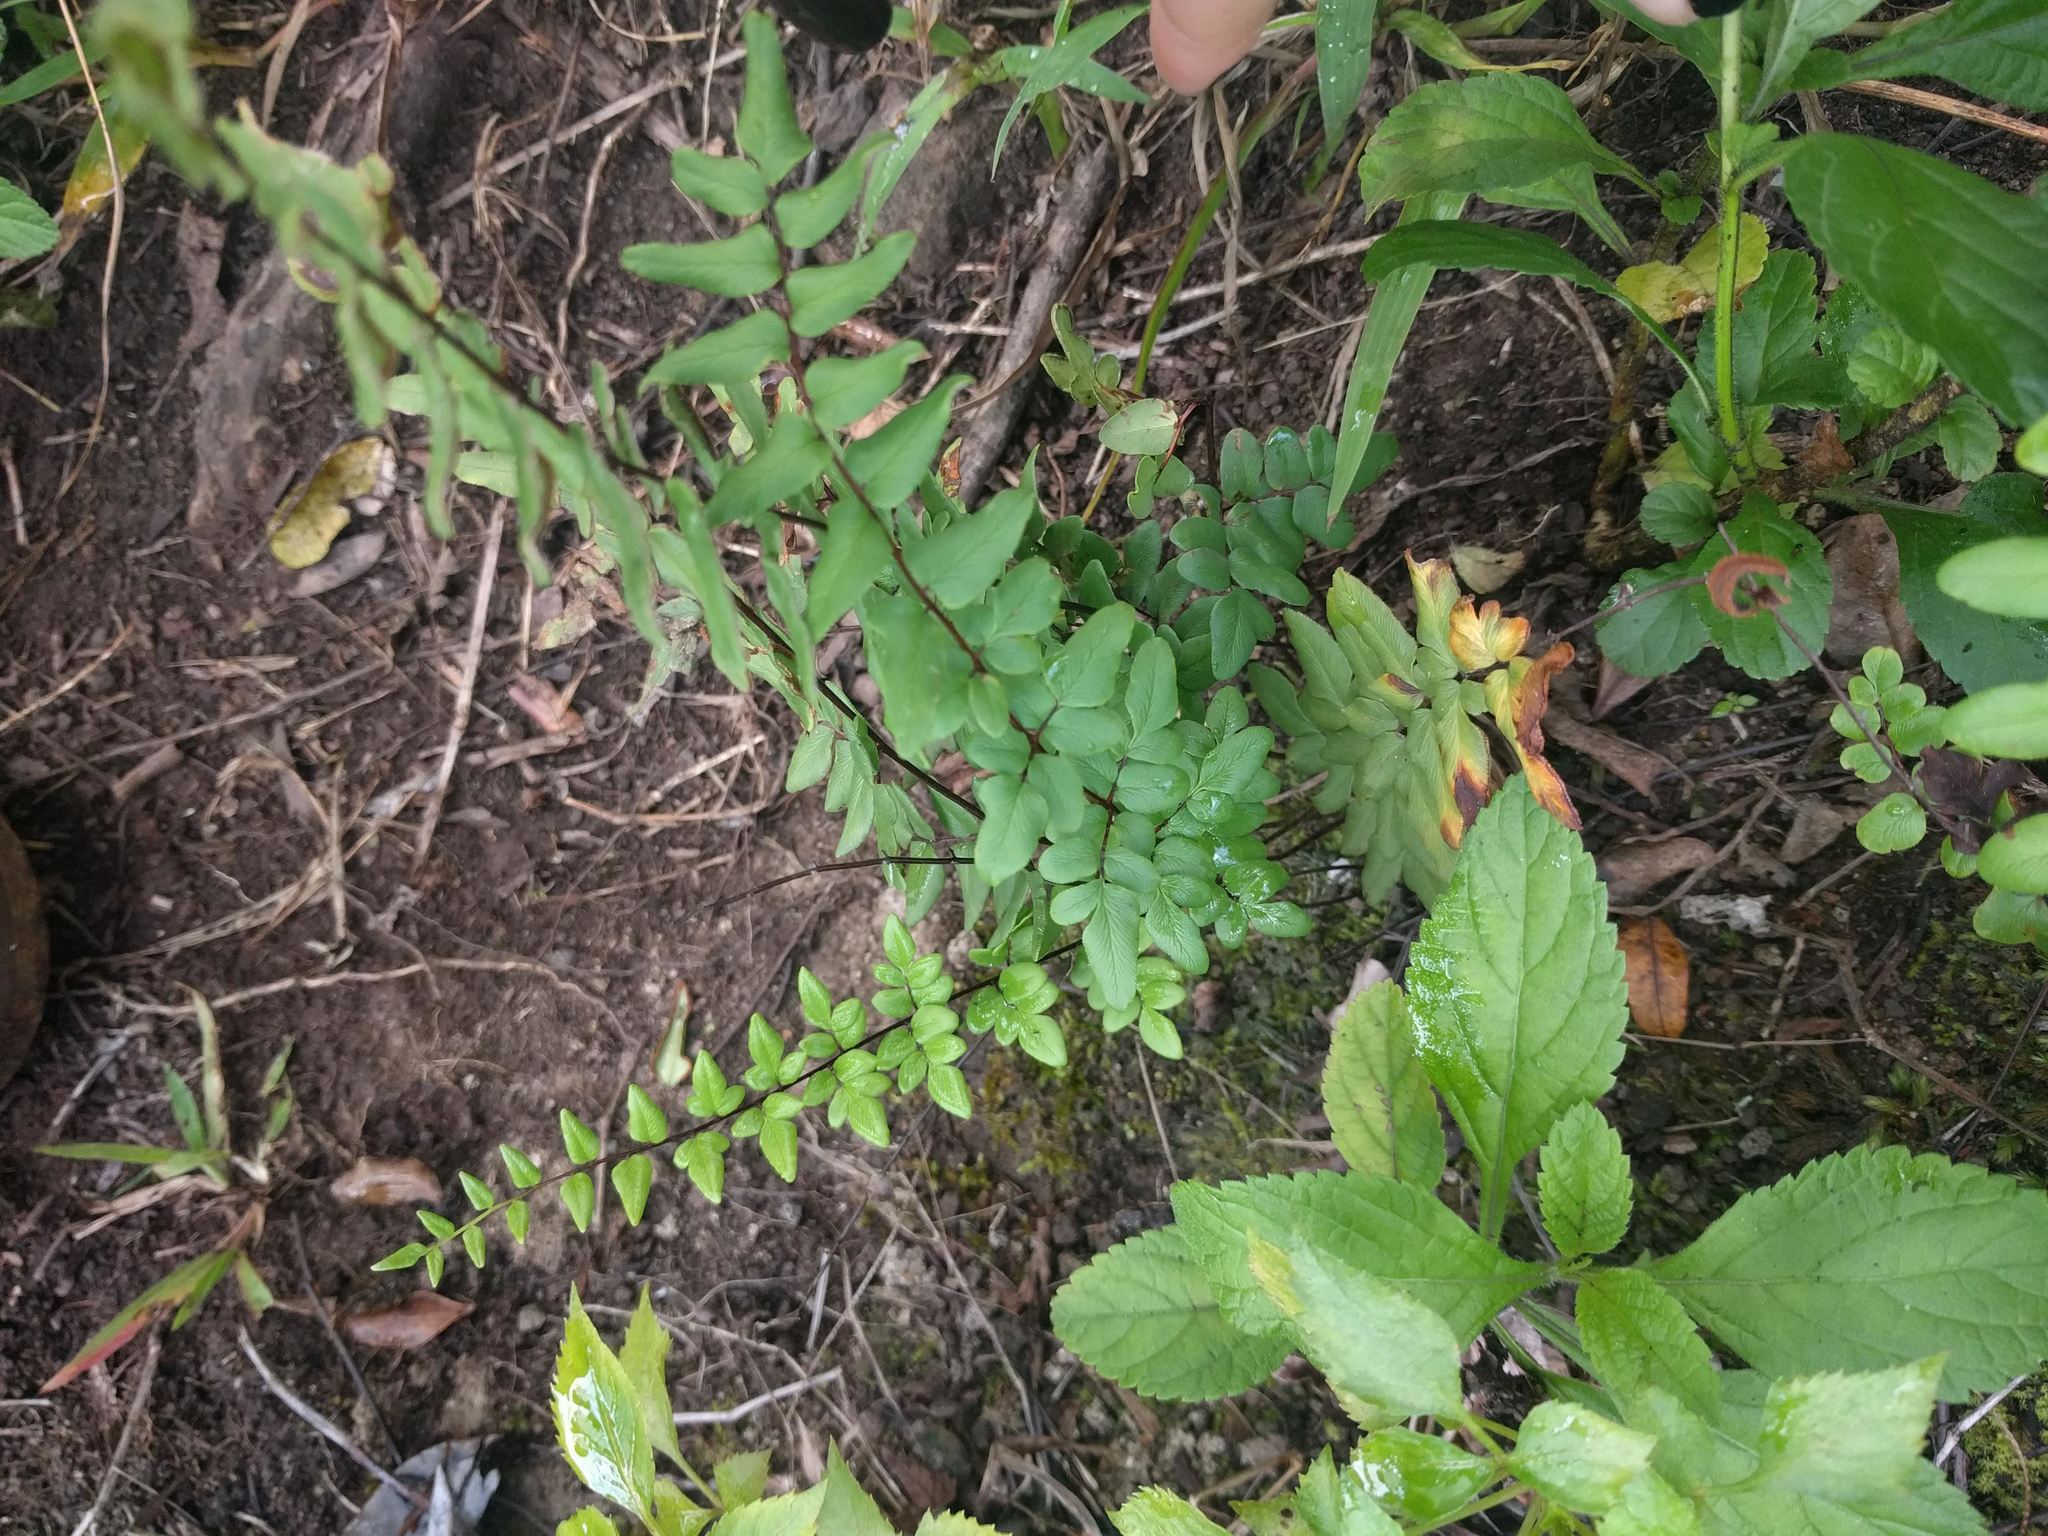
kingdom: Plantae
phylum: Tracheophyta
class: Polypodiopsida
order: Polypodiales
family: Pteridaceae
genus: Cheilanthes
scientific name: Cheilanthes viridis
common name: Green cliffbrake
